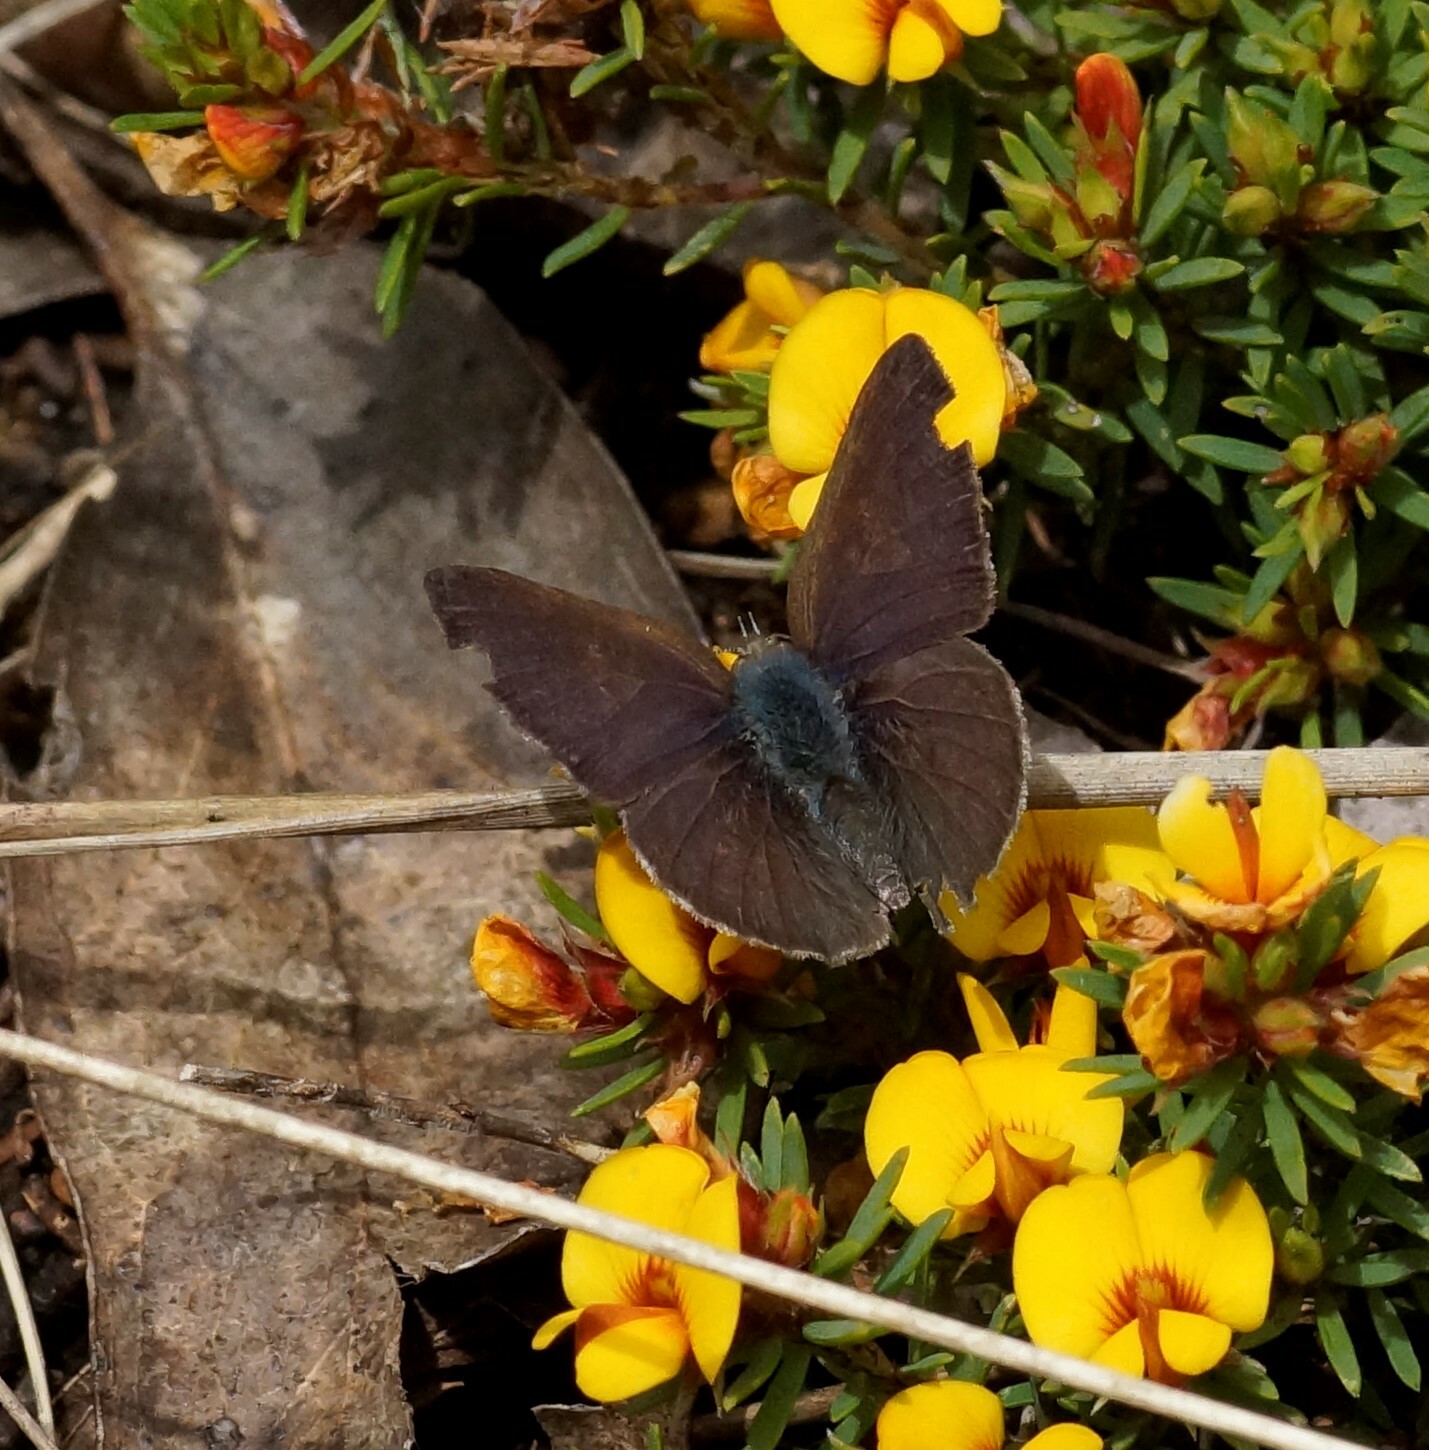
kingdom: Animalia
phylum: Arthropoda
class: Insecta
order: Lepidoptera
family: Lycaenidae
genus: Candalides
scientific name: Candalides
